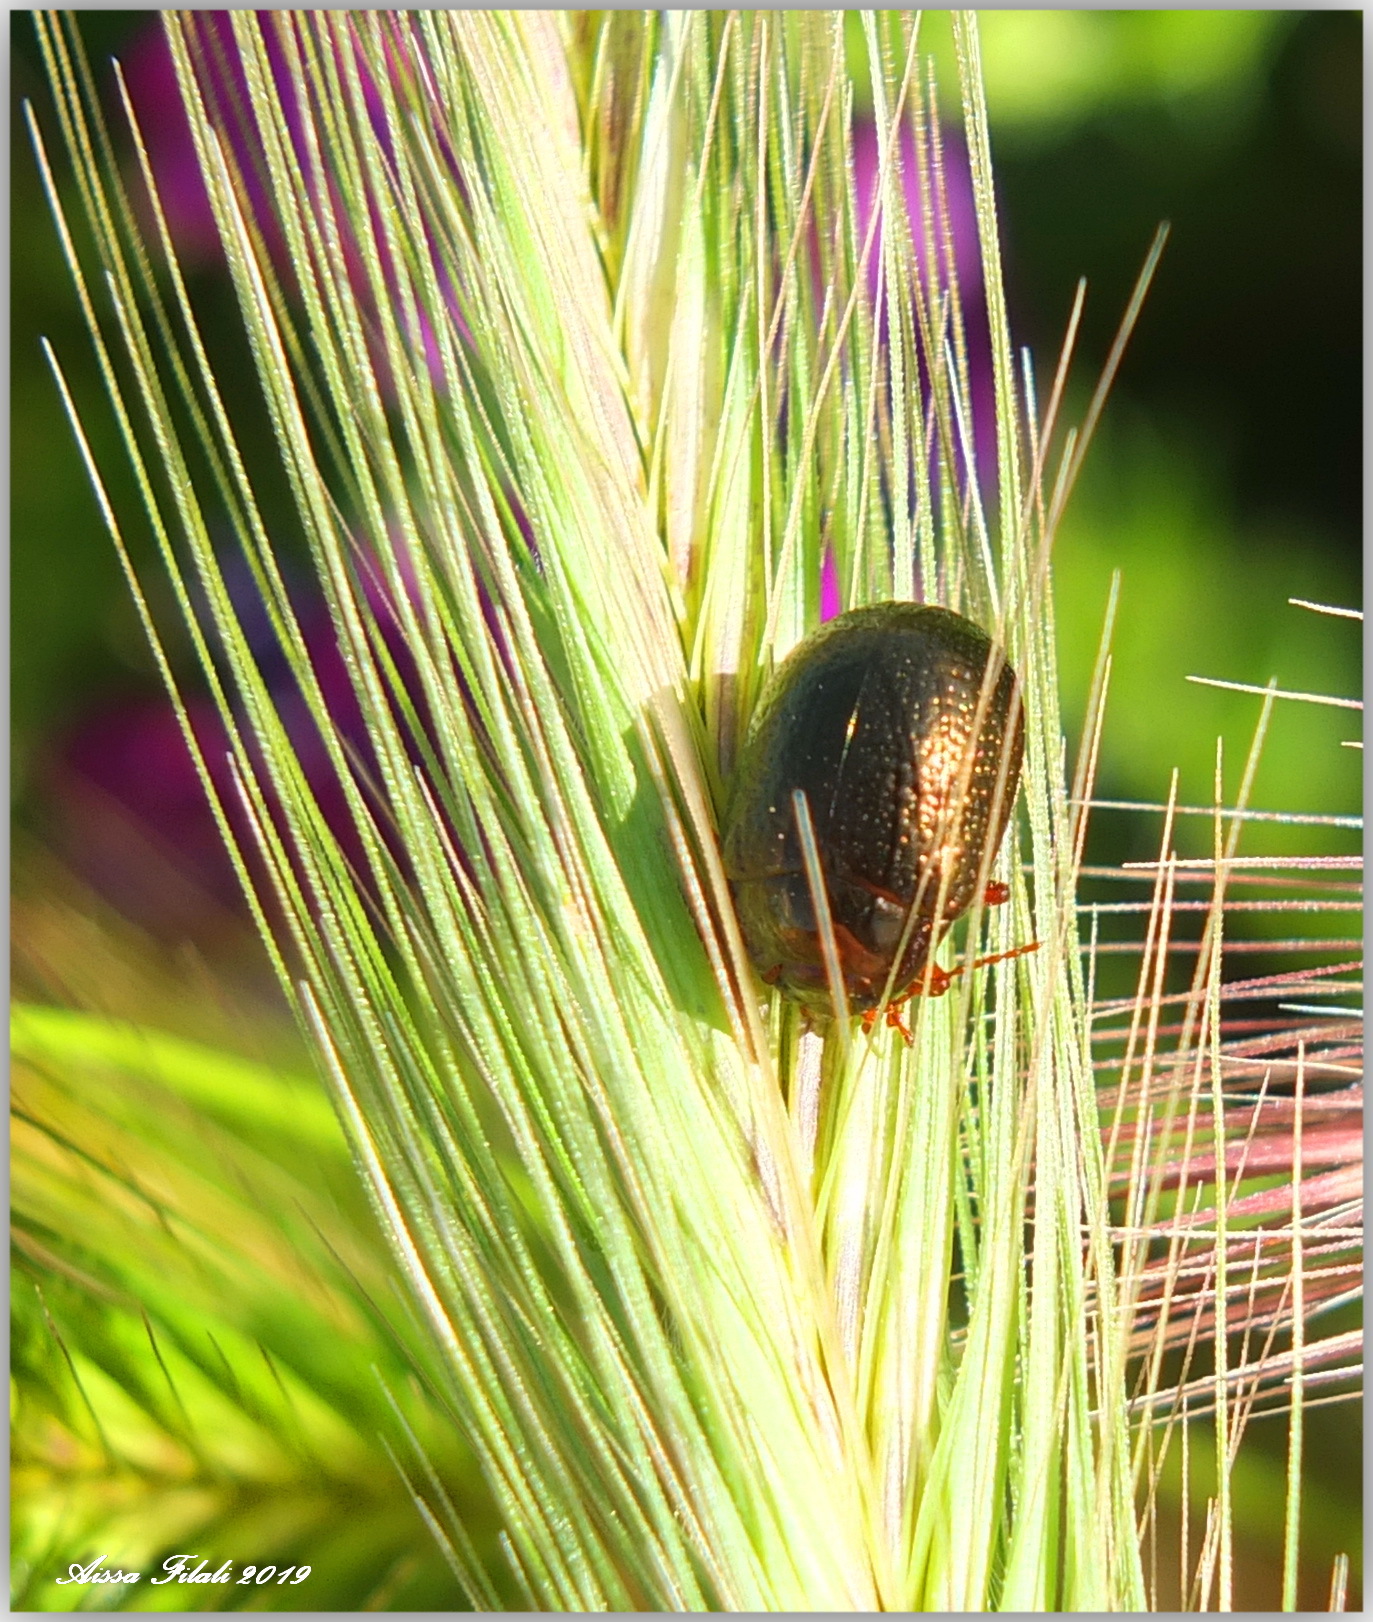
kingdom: Animalia
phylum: Arthropoda
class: Insecta
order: Coleoptera
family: Chrysomelidae
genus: Chrysolina
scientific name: Chrysolina bankii
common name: Leaf beetle
